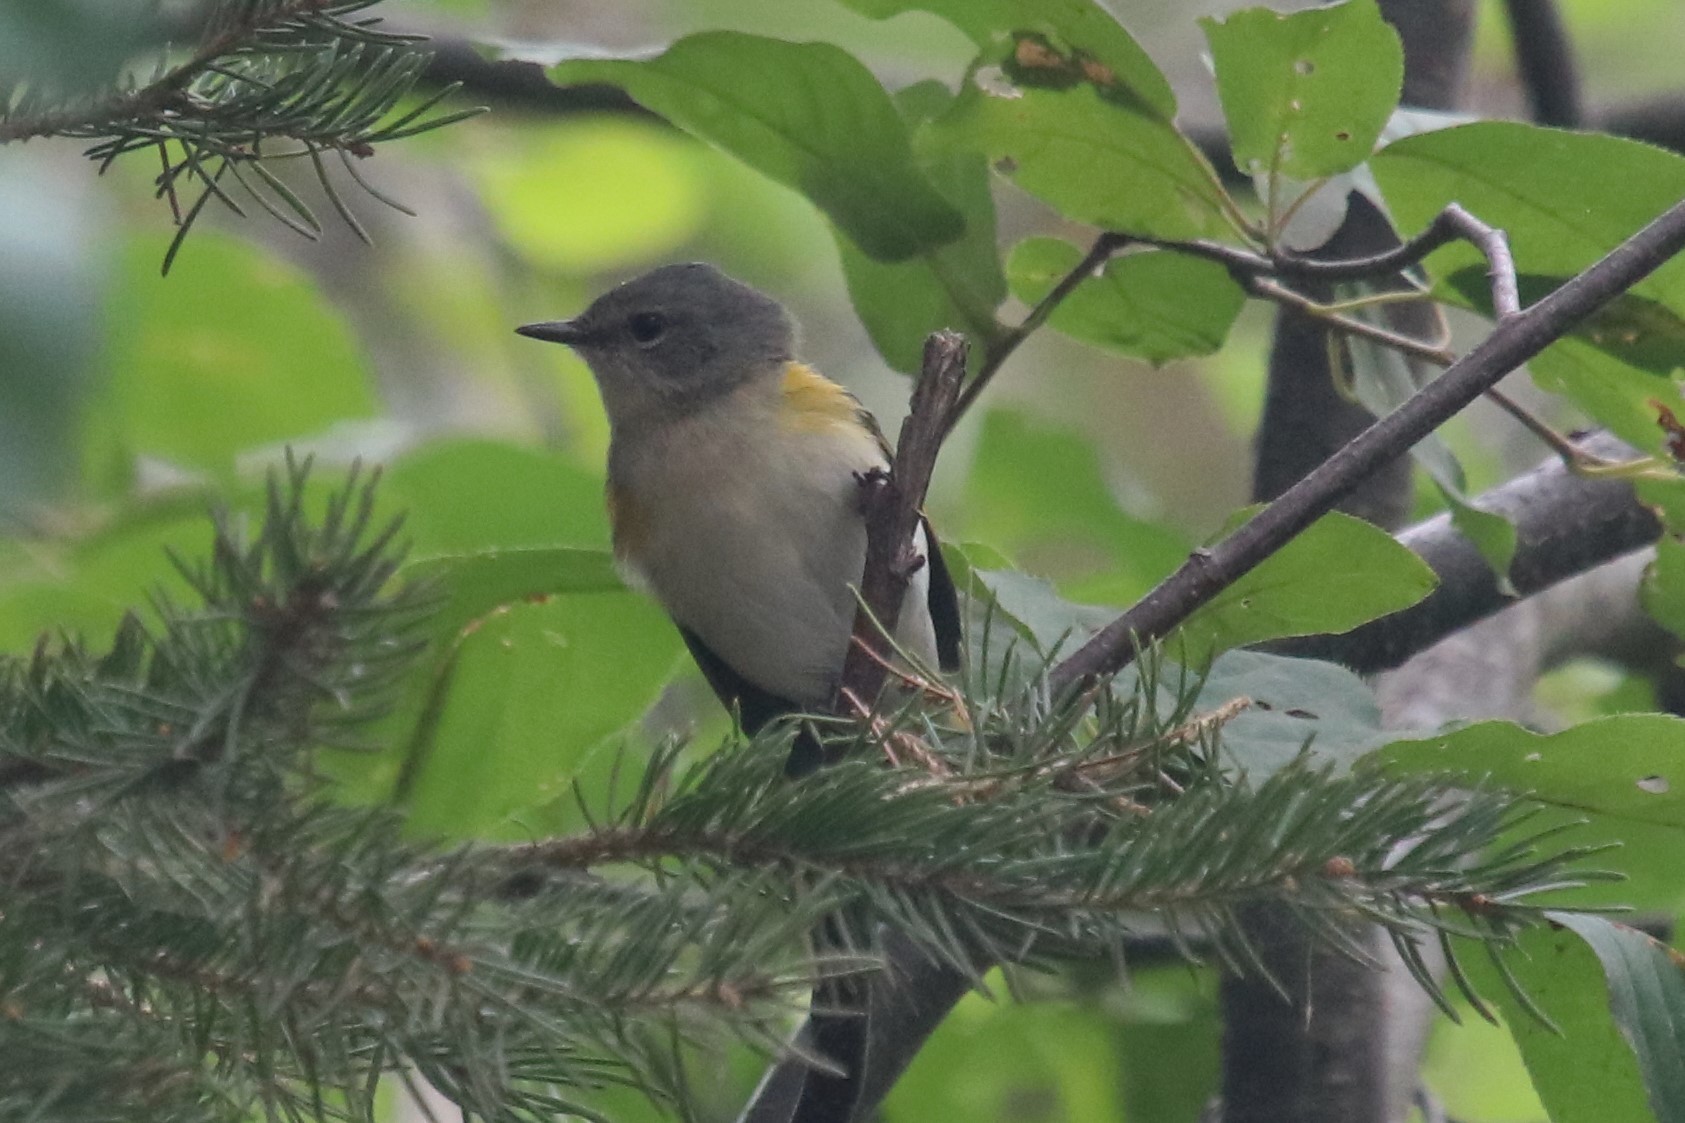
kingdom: Animalia
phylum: Chordata
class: Aves
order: Passeriformes
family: Parulidae
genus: Setophaga
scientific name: Setophaga ruticilla
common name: American redstart
